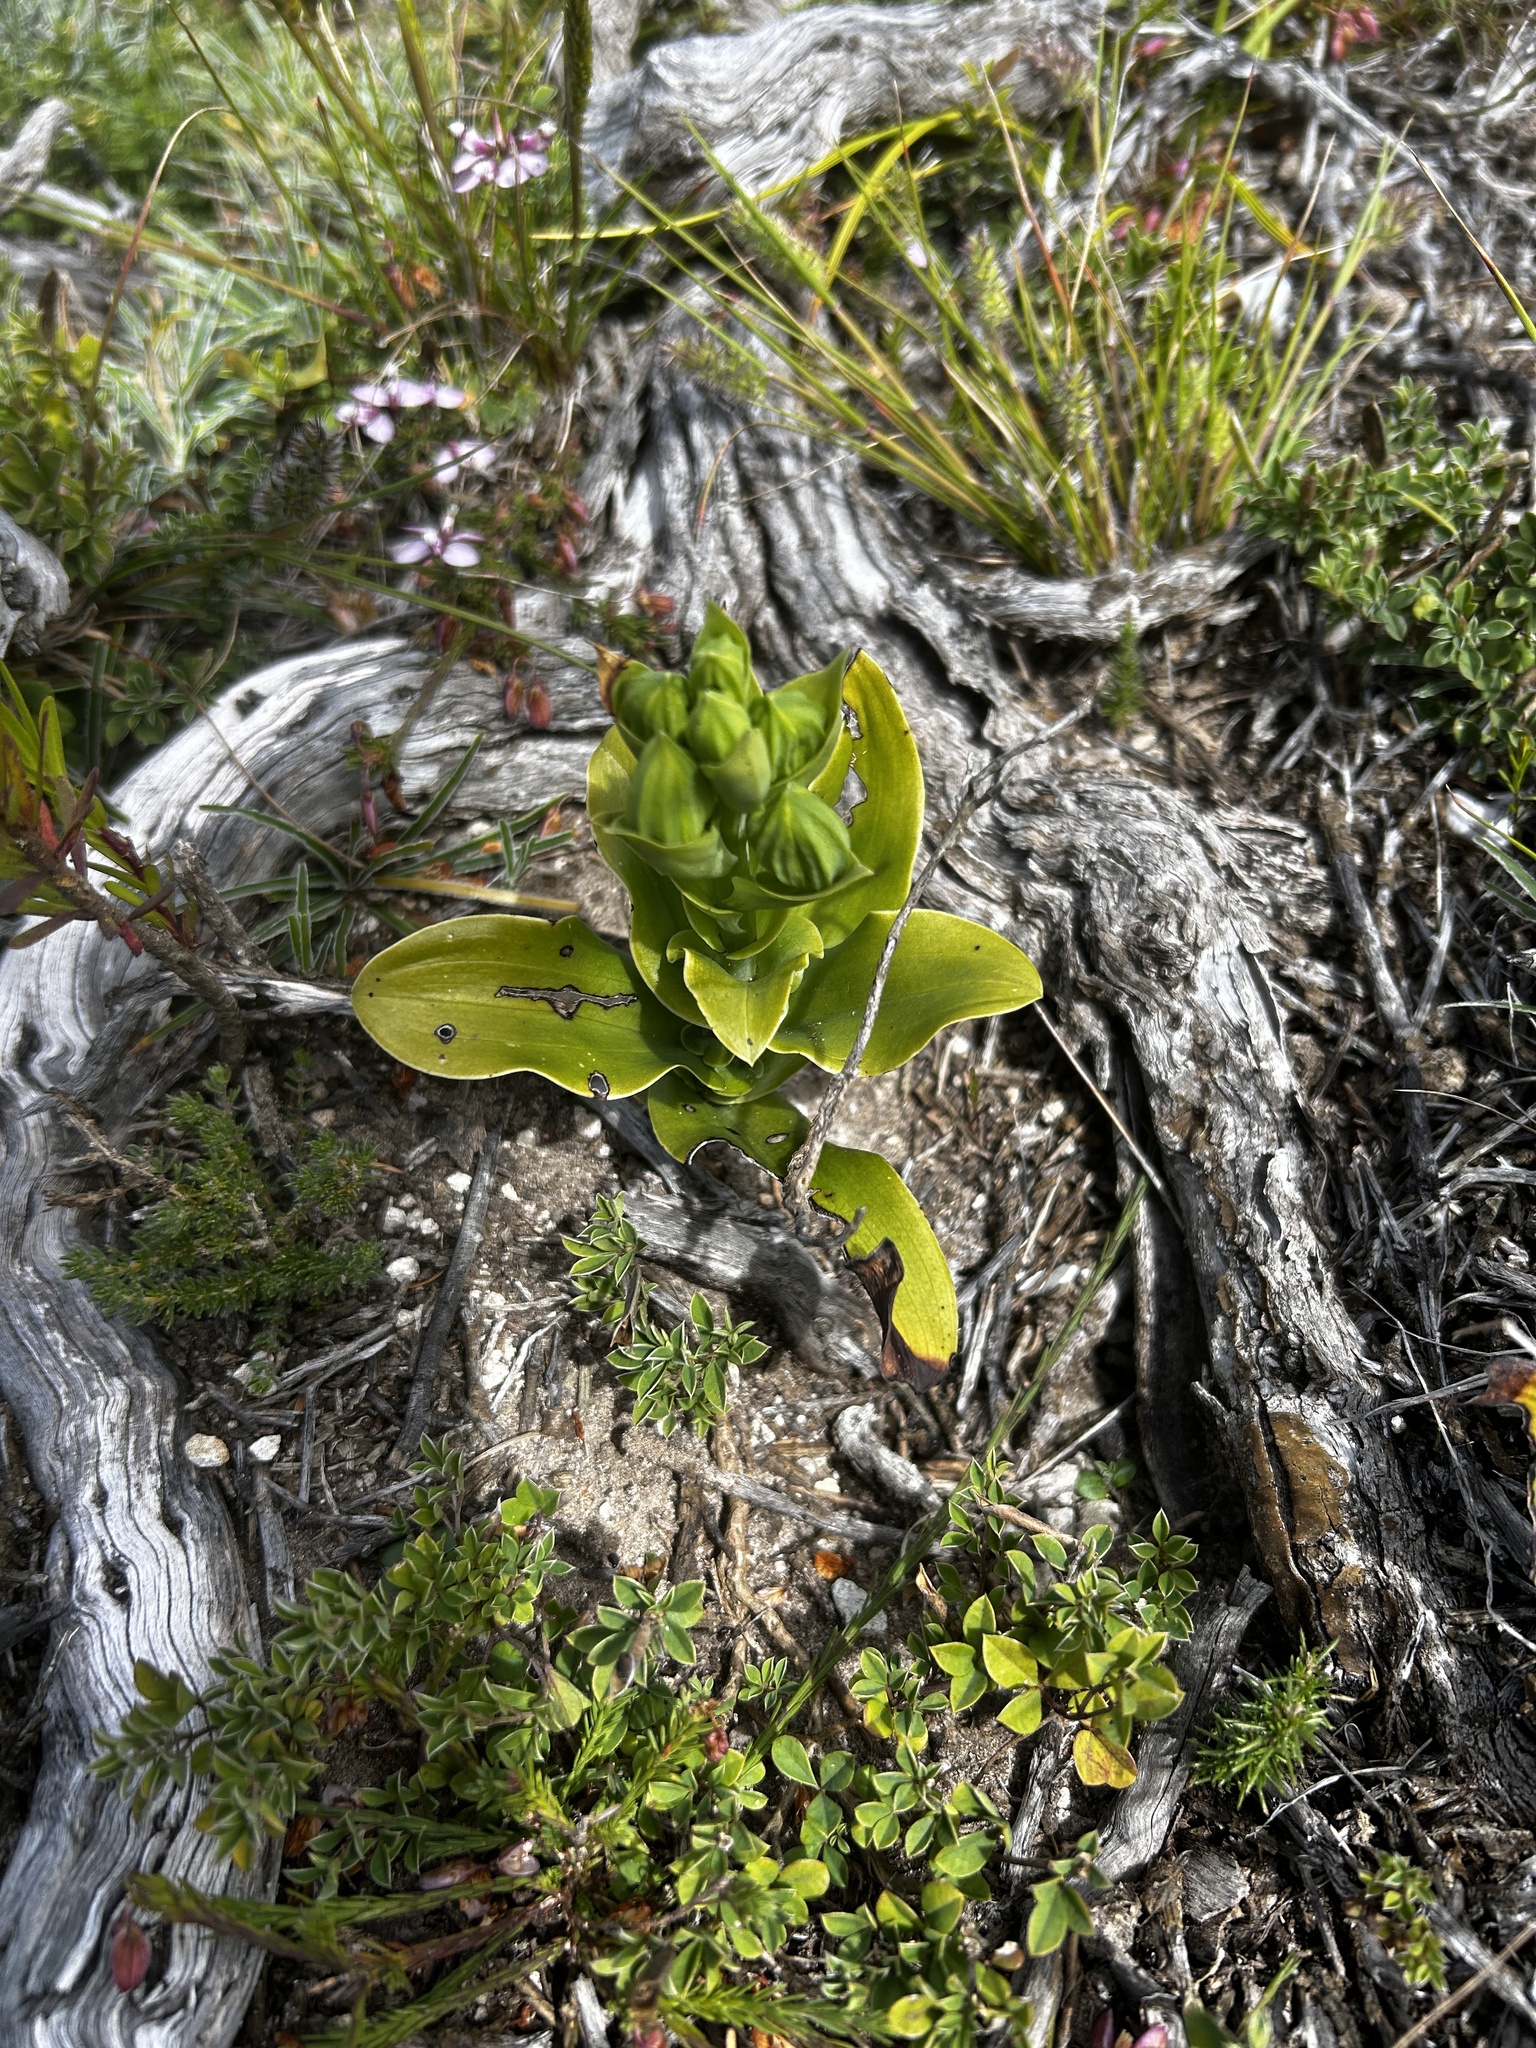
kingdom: Plantae
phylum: Tracheophyta
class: Liliopsida
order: Asparagales
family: Orchidaceae
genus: Bonatea
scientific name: Bonatea speciosa
